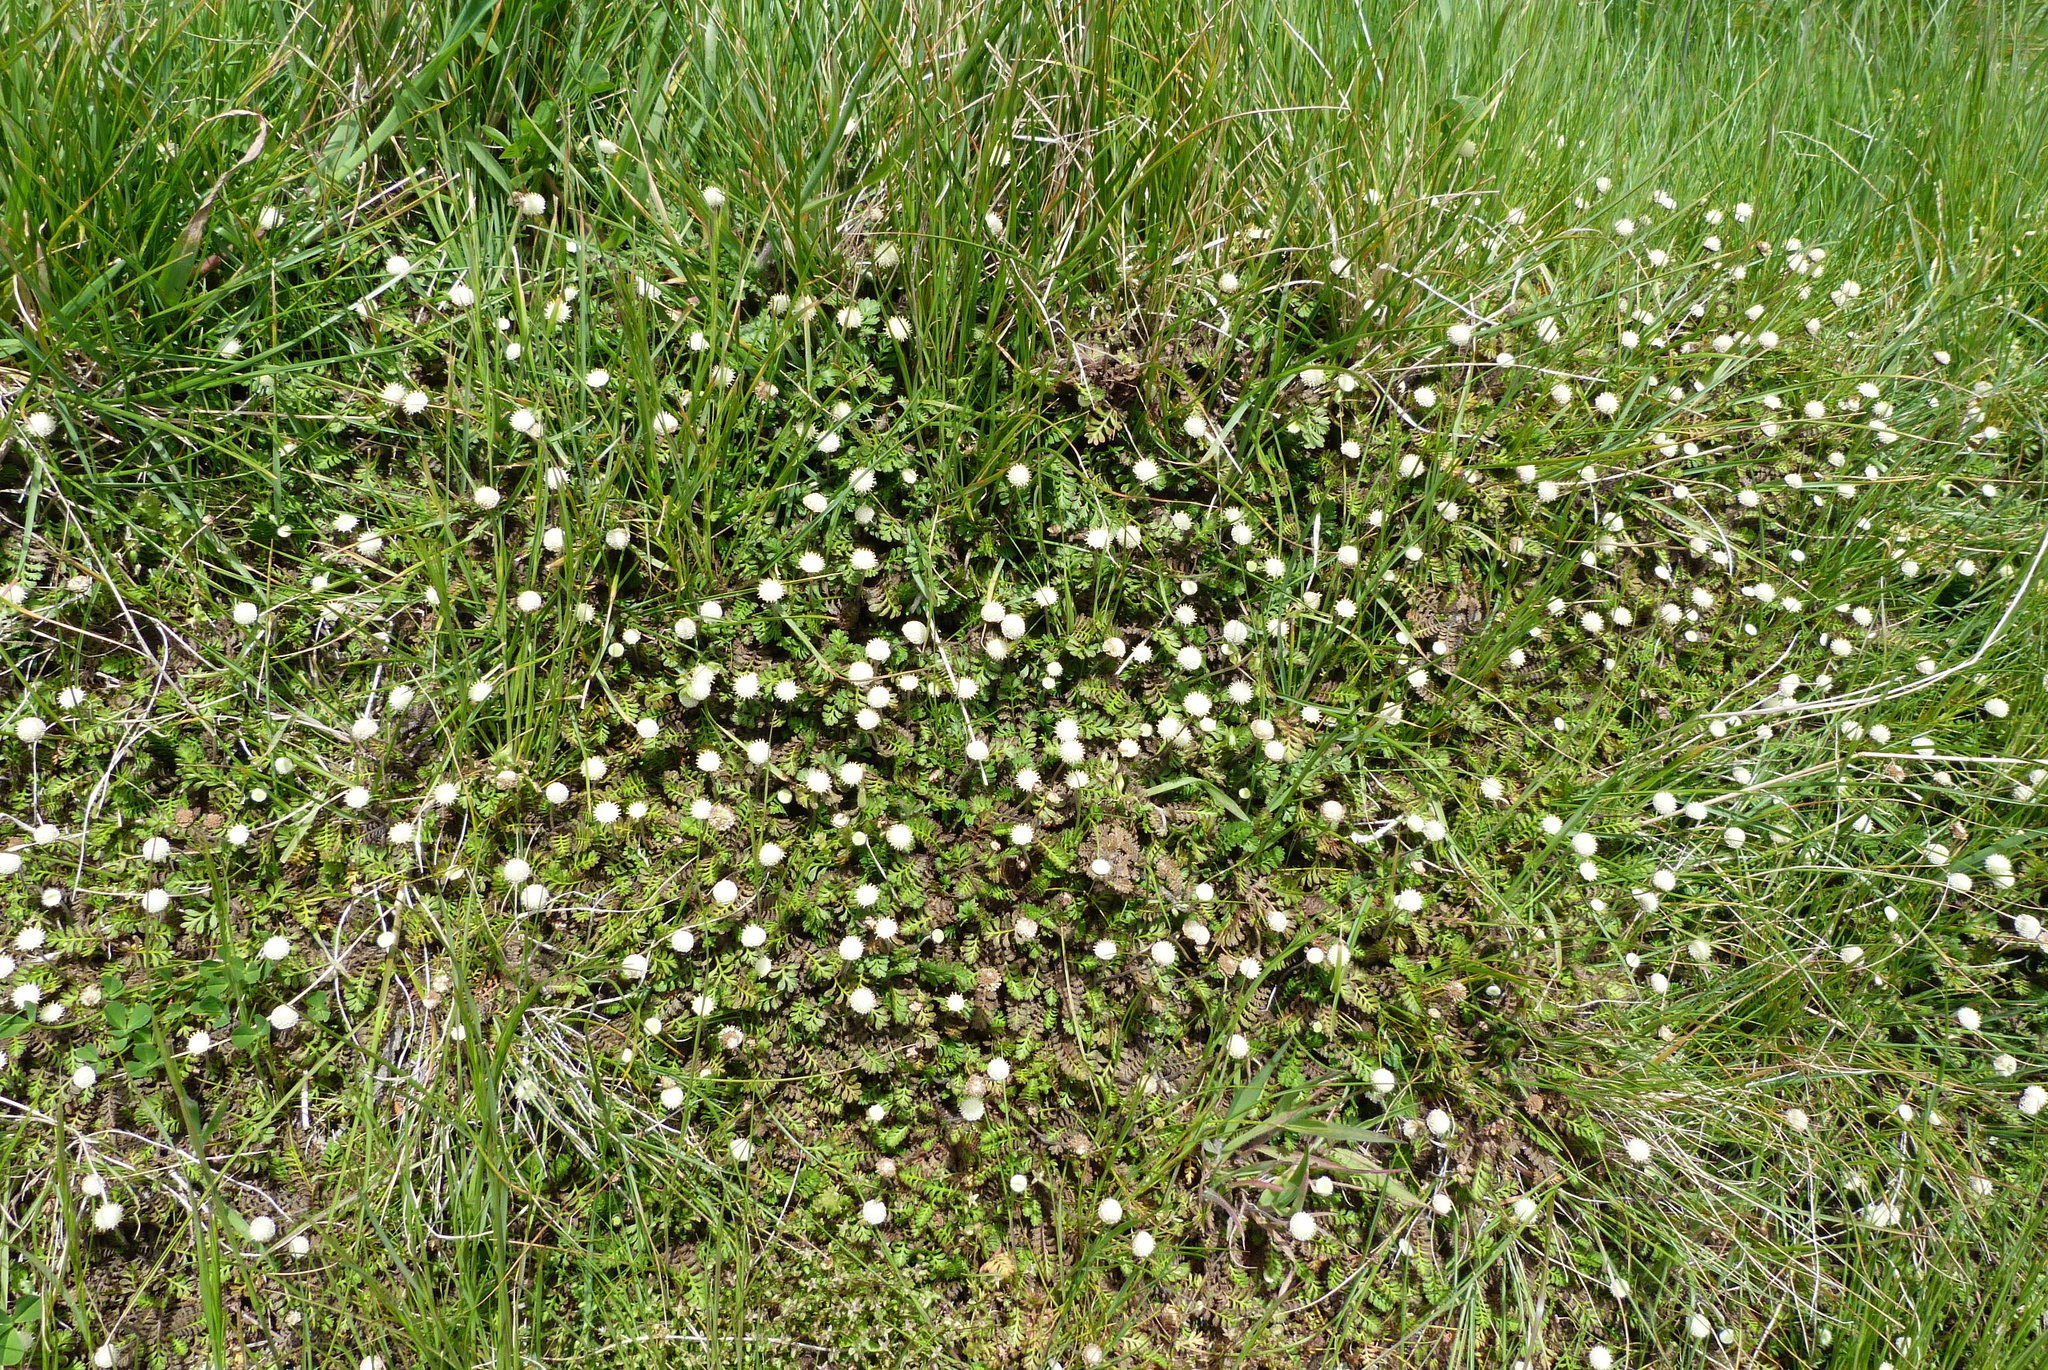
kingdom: Plantae
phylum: Tracheophyta
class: Magnoliopsida
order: Asterales
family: Asteraceae
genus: Leptinella
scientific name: Leptinella minor
